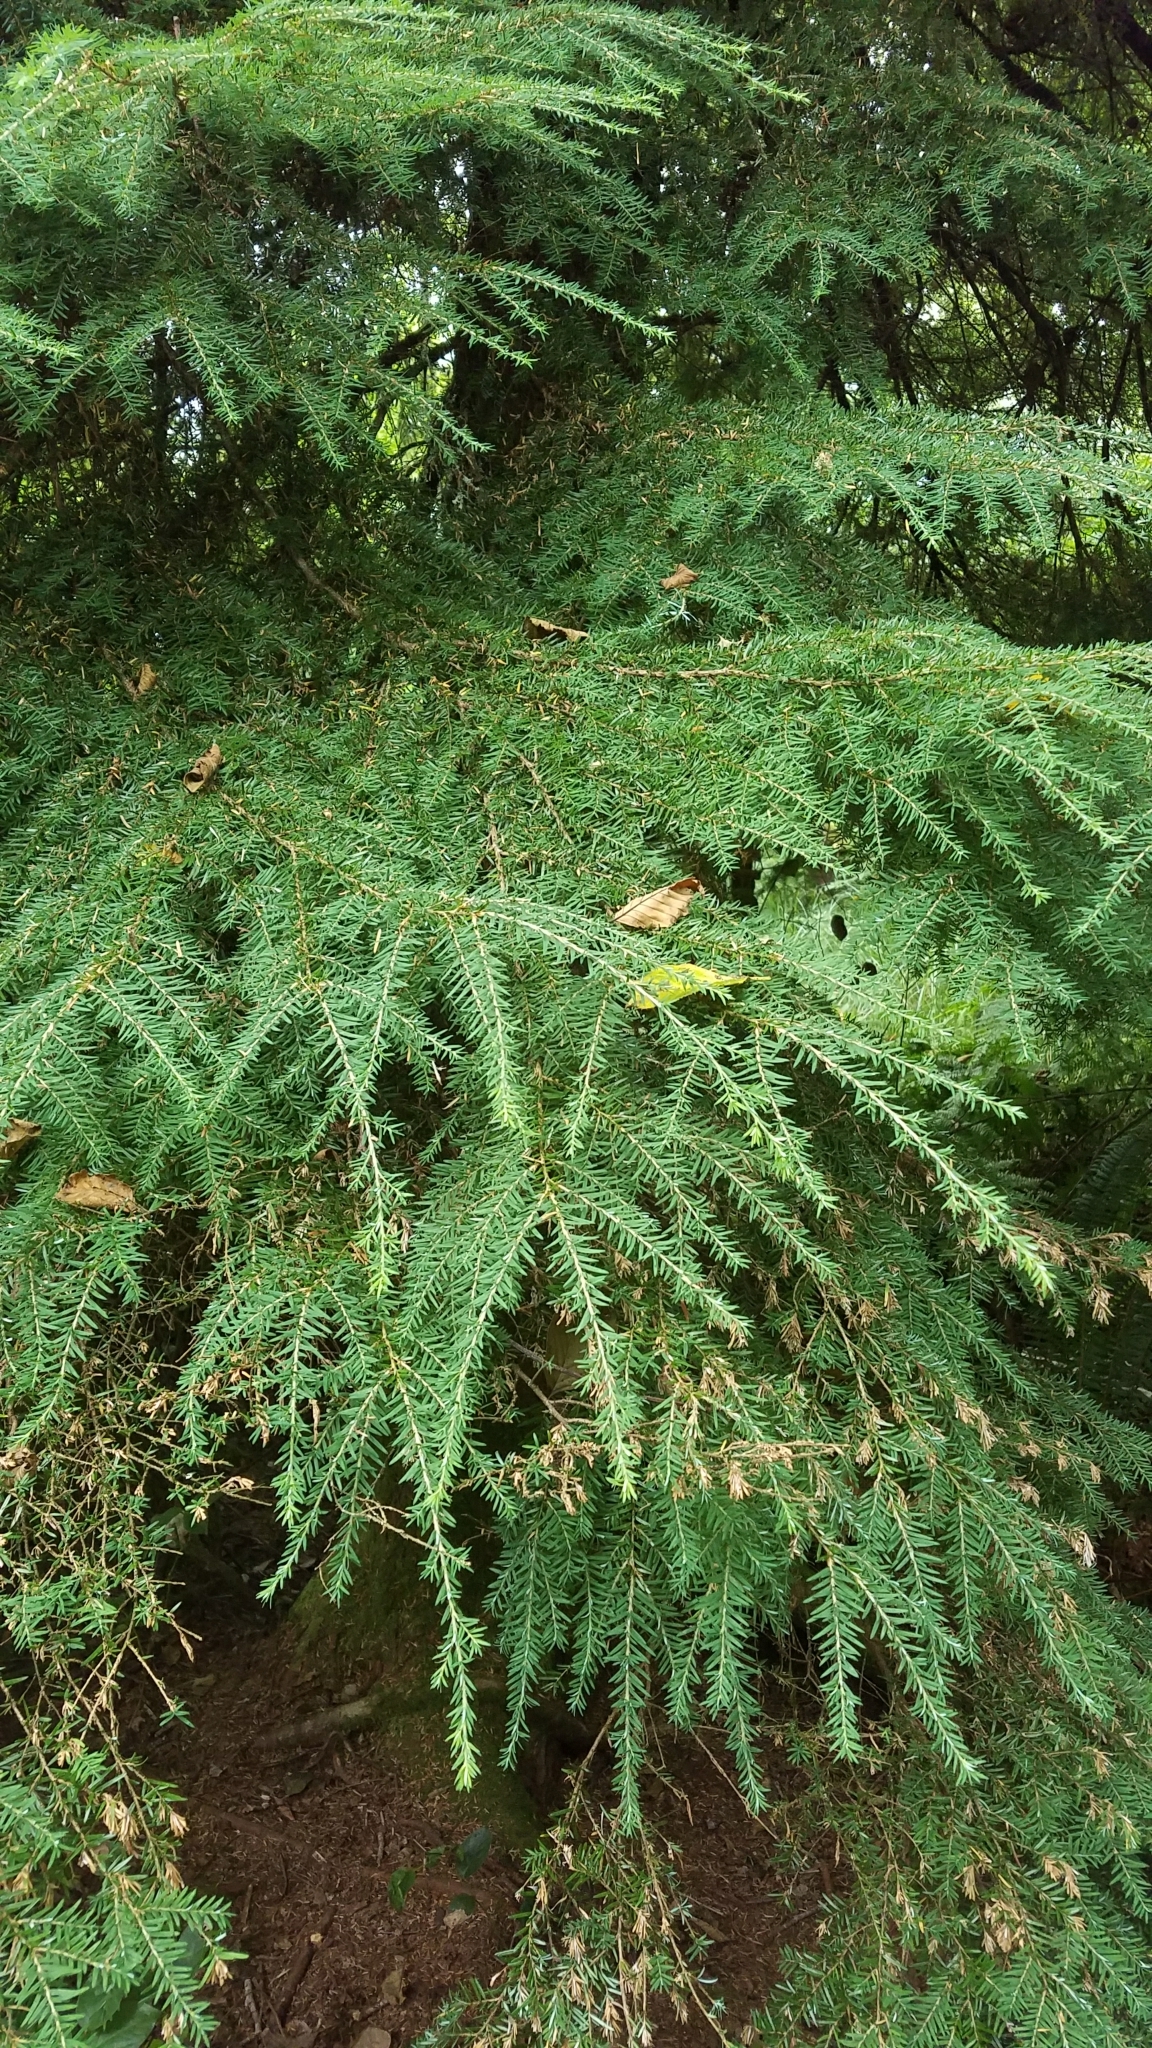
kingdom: Plantae
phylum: Tracheophyta
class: Pinopsida
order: Pinales
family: Pinaceae
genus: Tsuga
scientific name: Tsuga heterophylla
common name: Western hemlock
